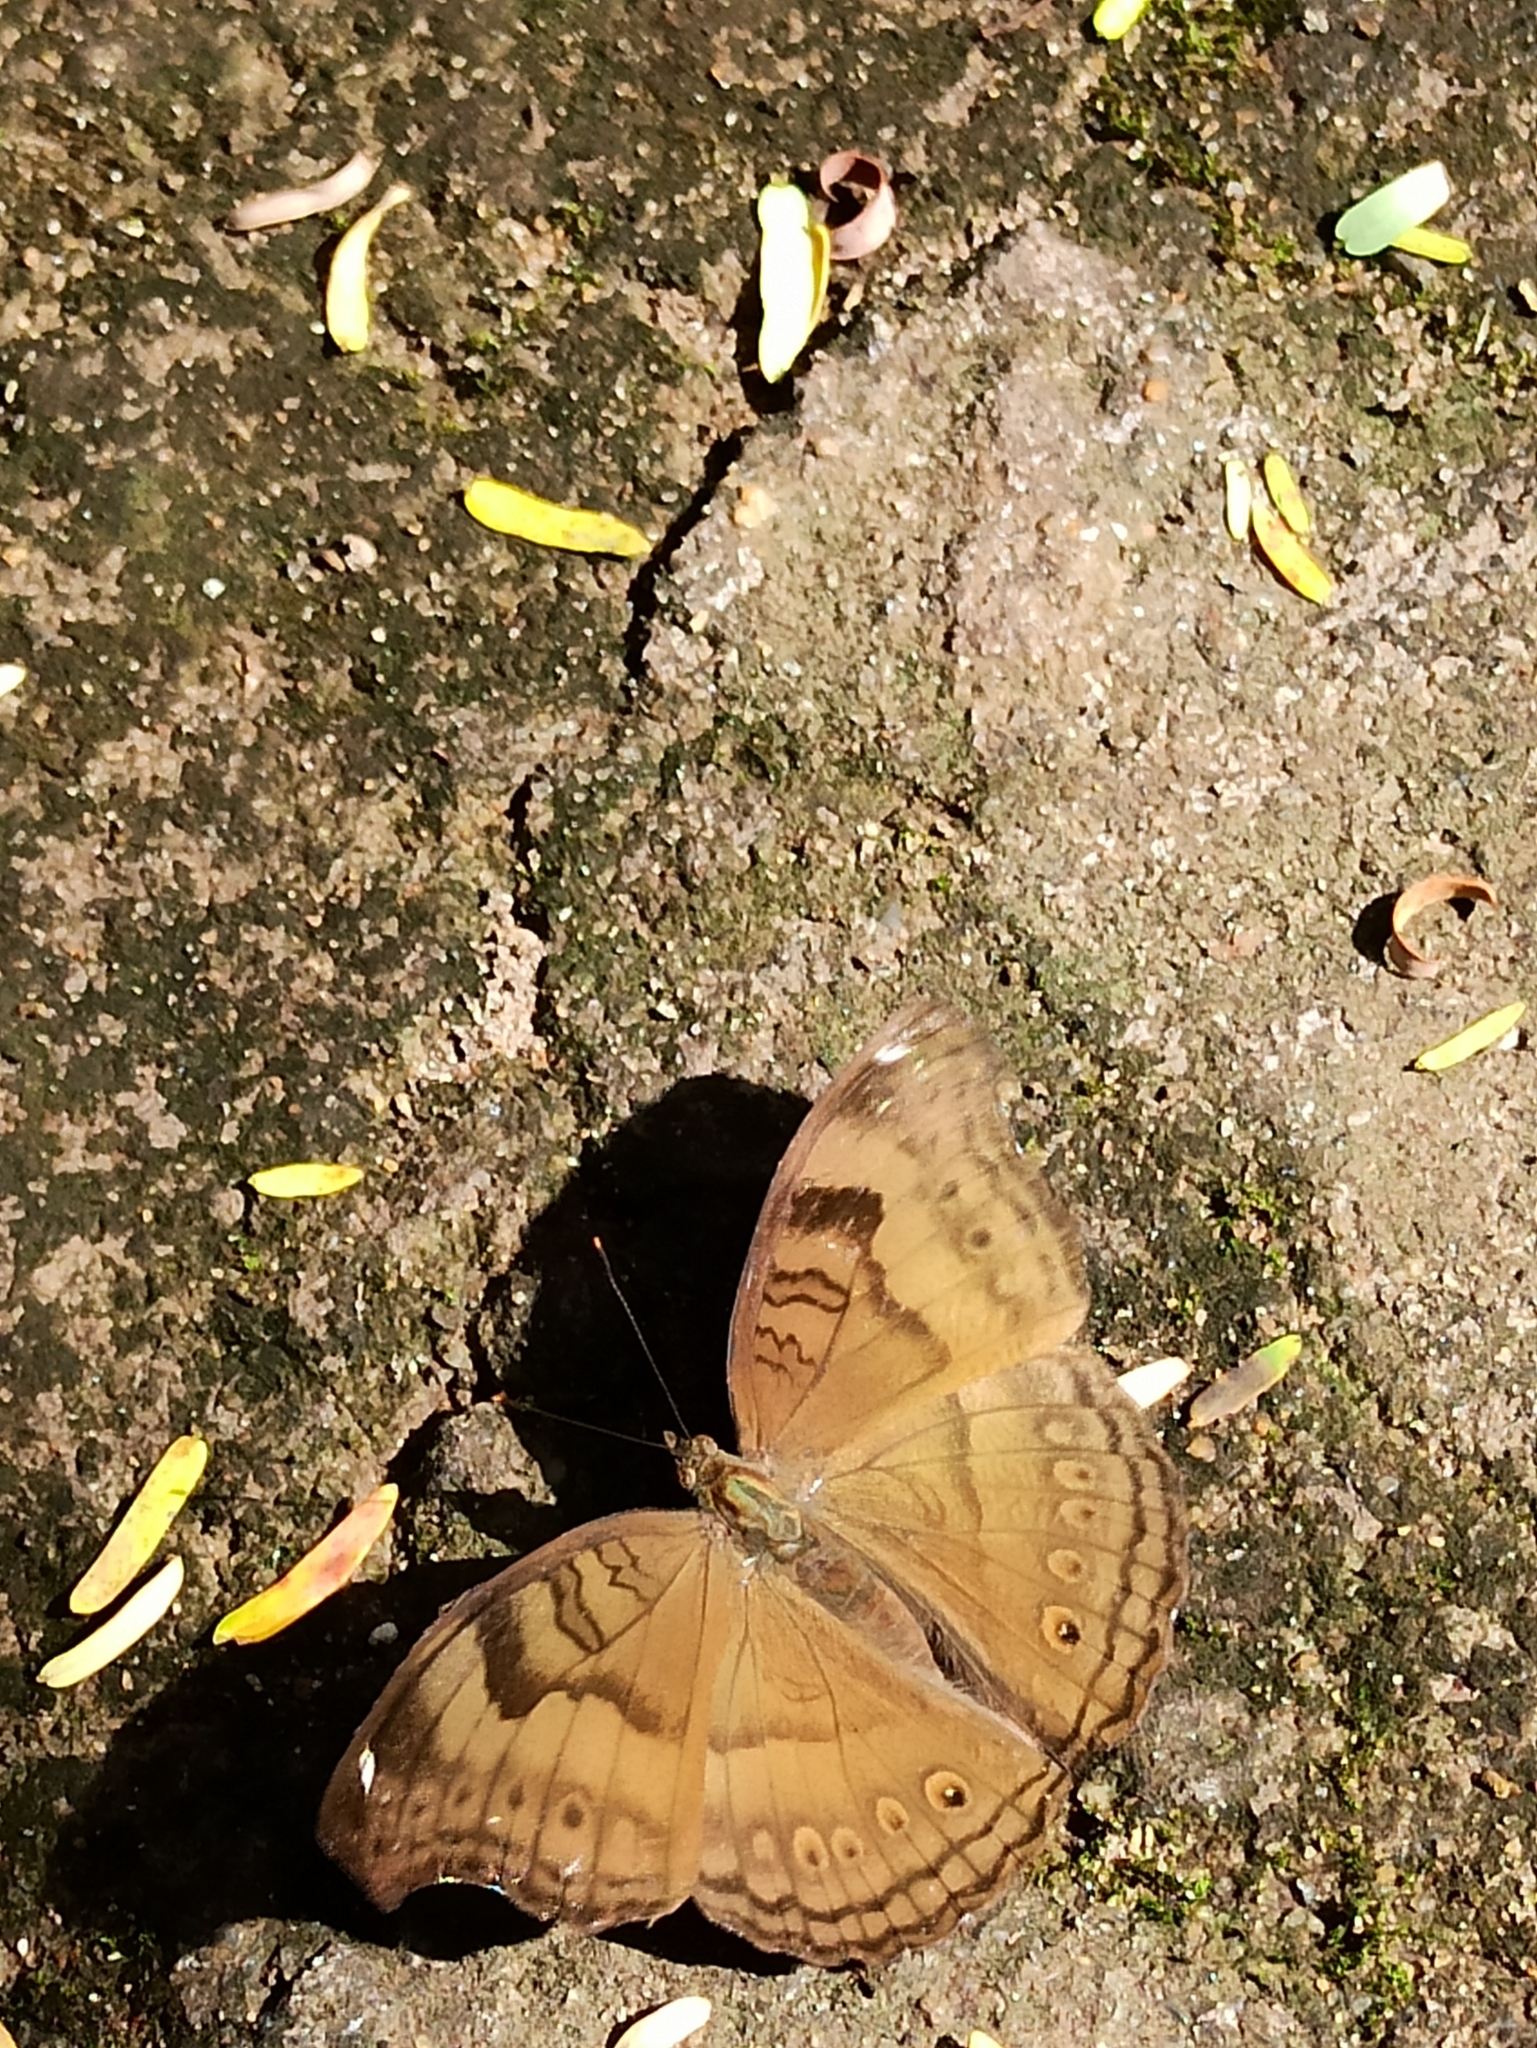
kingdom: Animalia
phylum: Arthropoda
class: Insecta
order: Lepidoptera
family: Nymphalidae
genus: Junonia
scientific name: Junonia iphita
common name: Chocolate pansy
